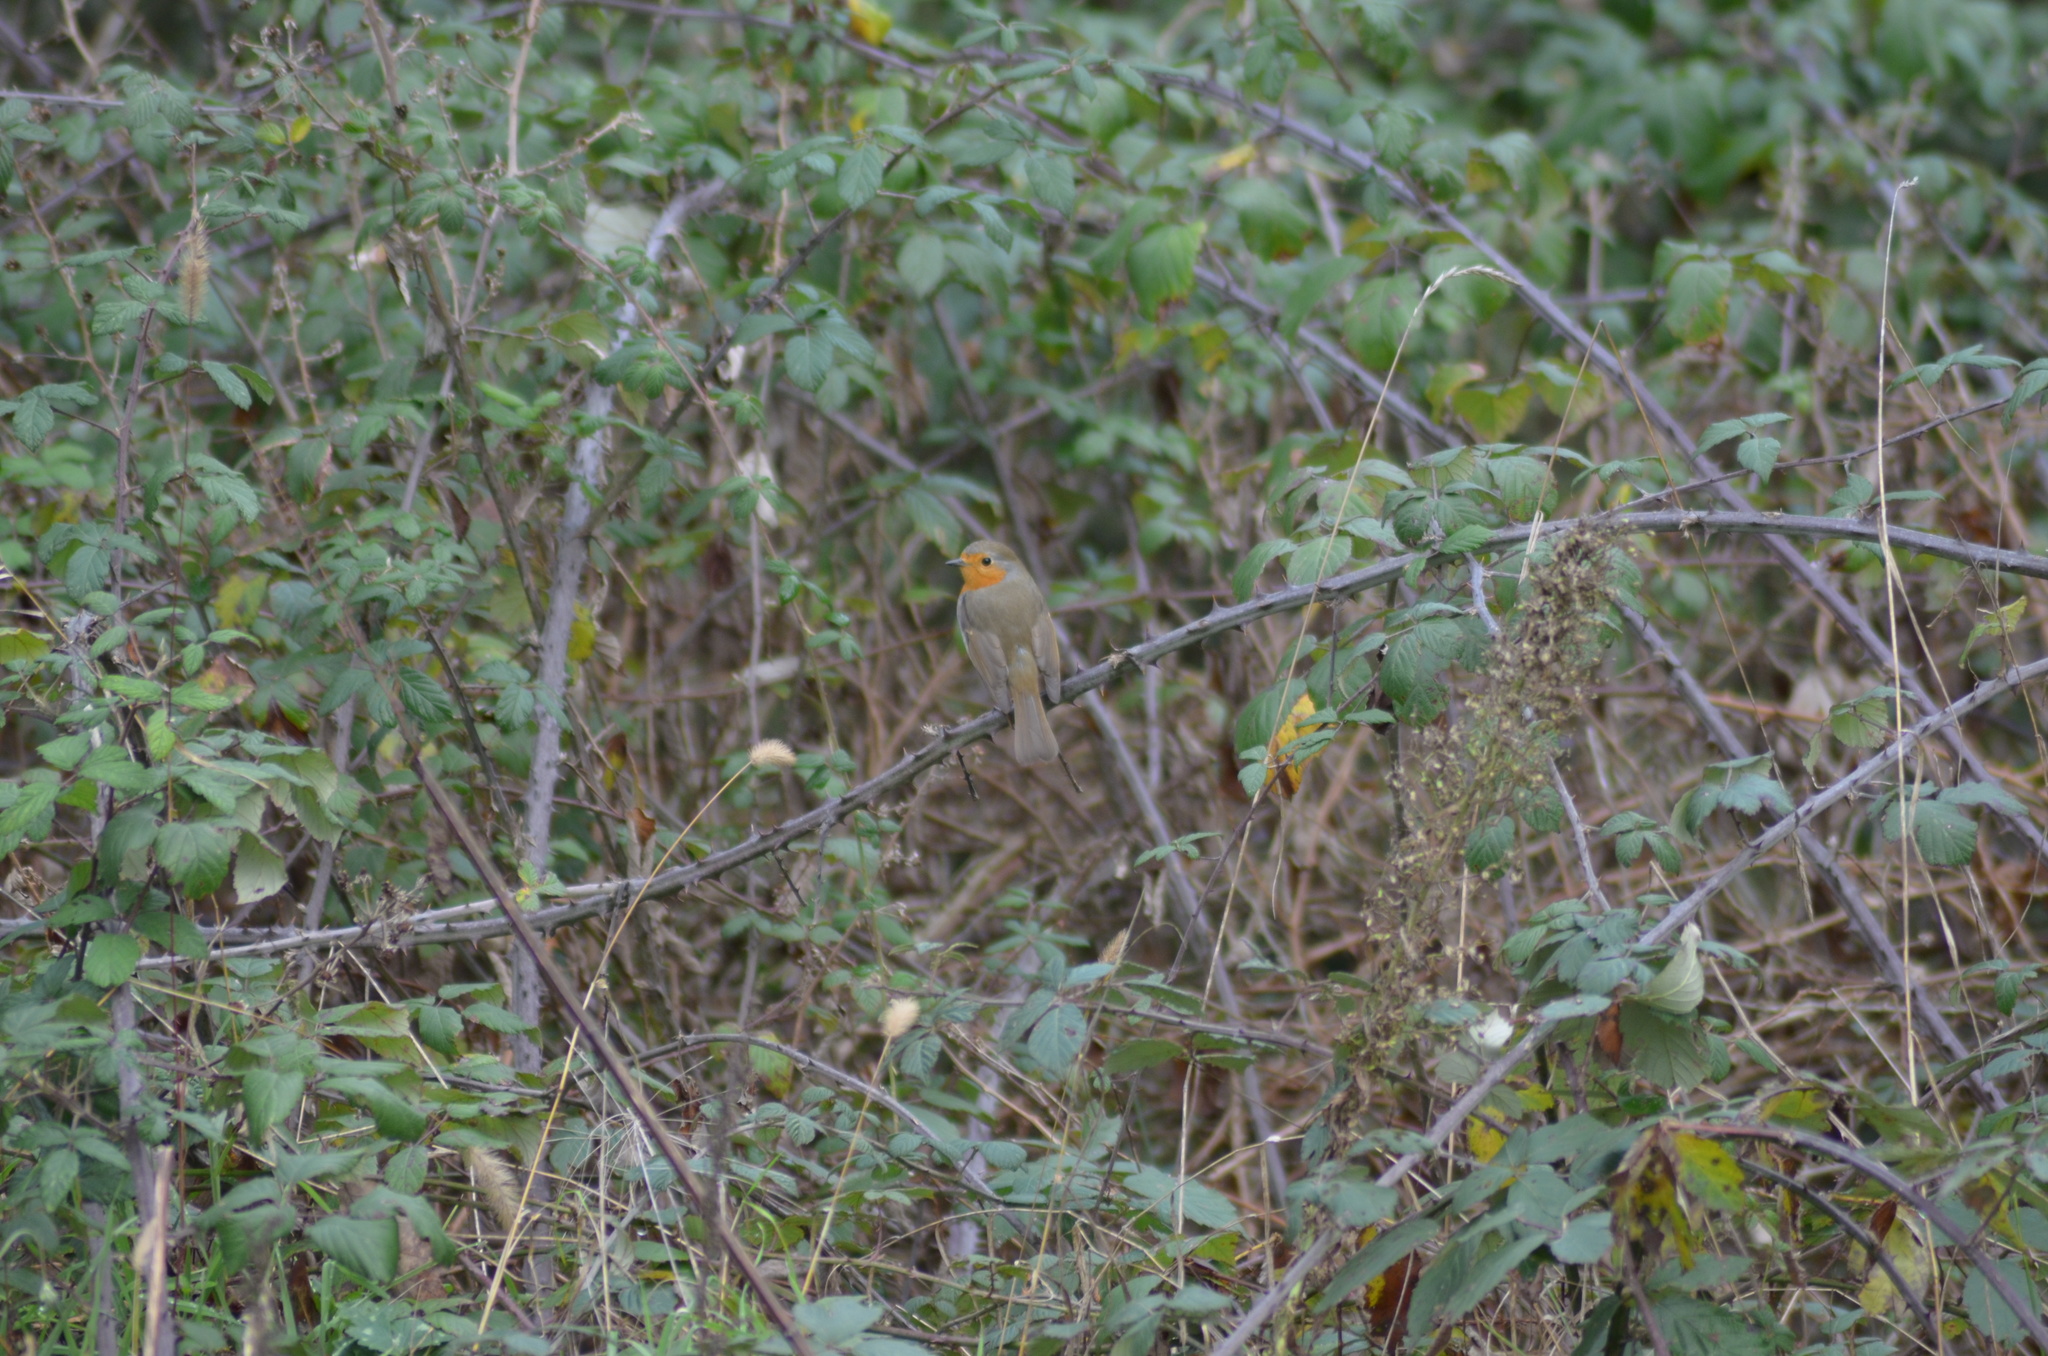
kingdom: Animalia
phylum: Chordata
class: Aves
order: Passeriformes
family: Muscicapidae
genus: Erithacus
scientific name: Erithacus rubecula
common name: European robin
